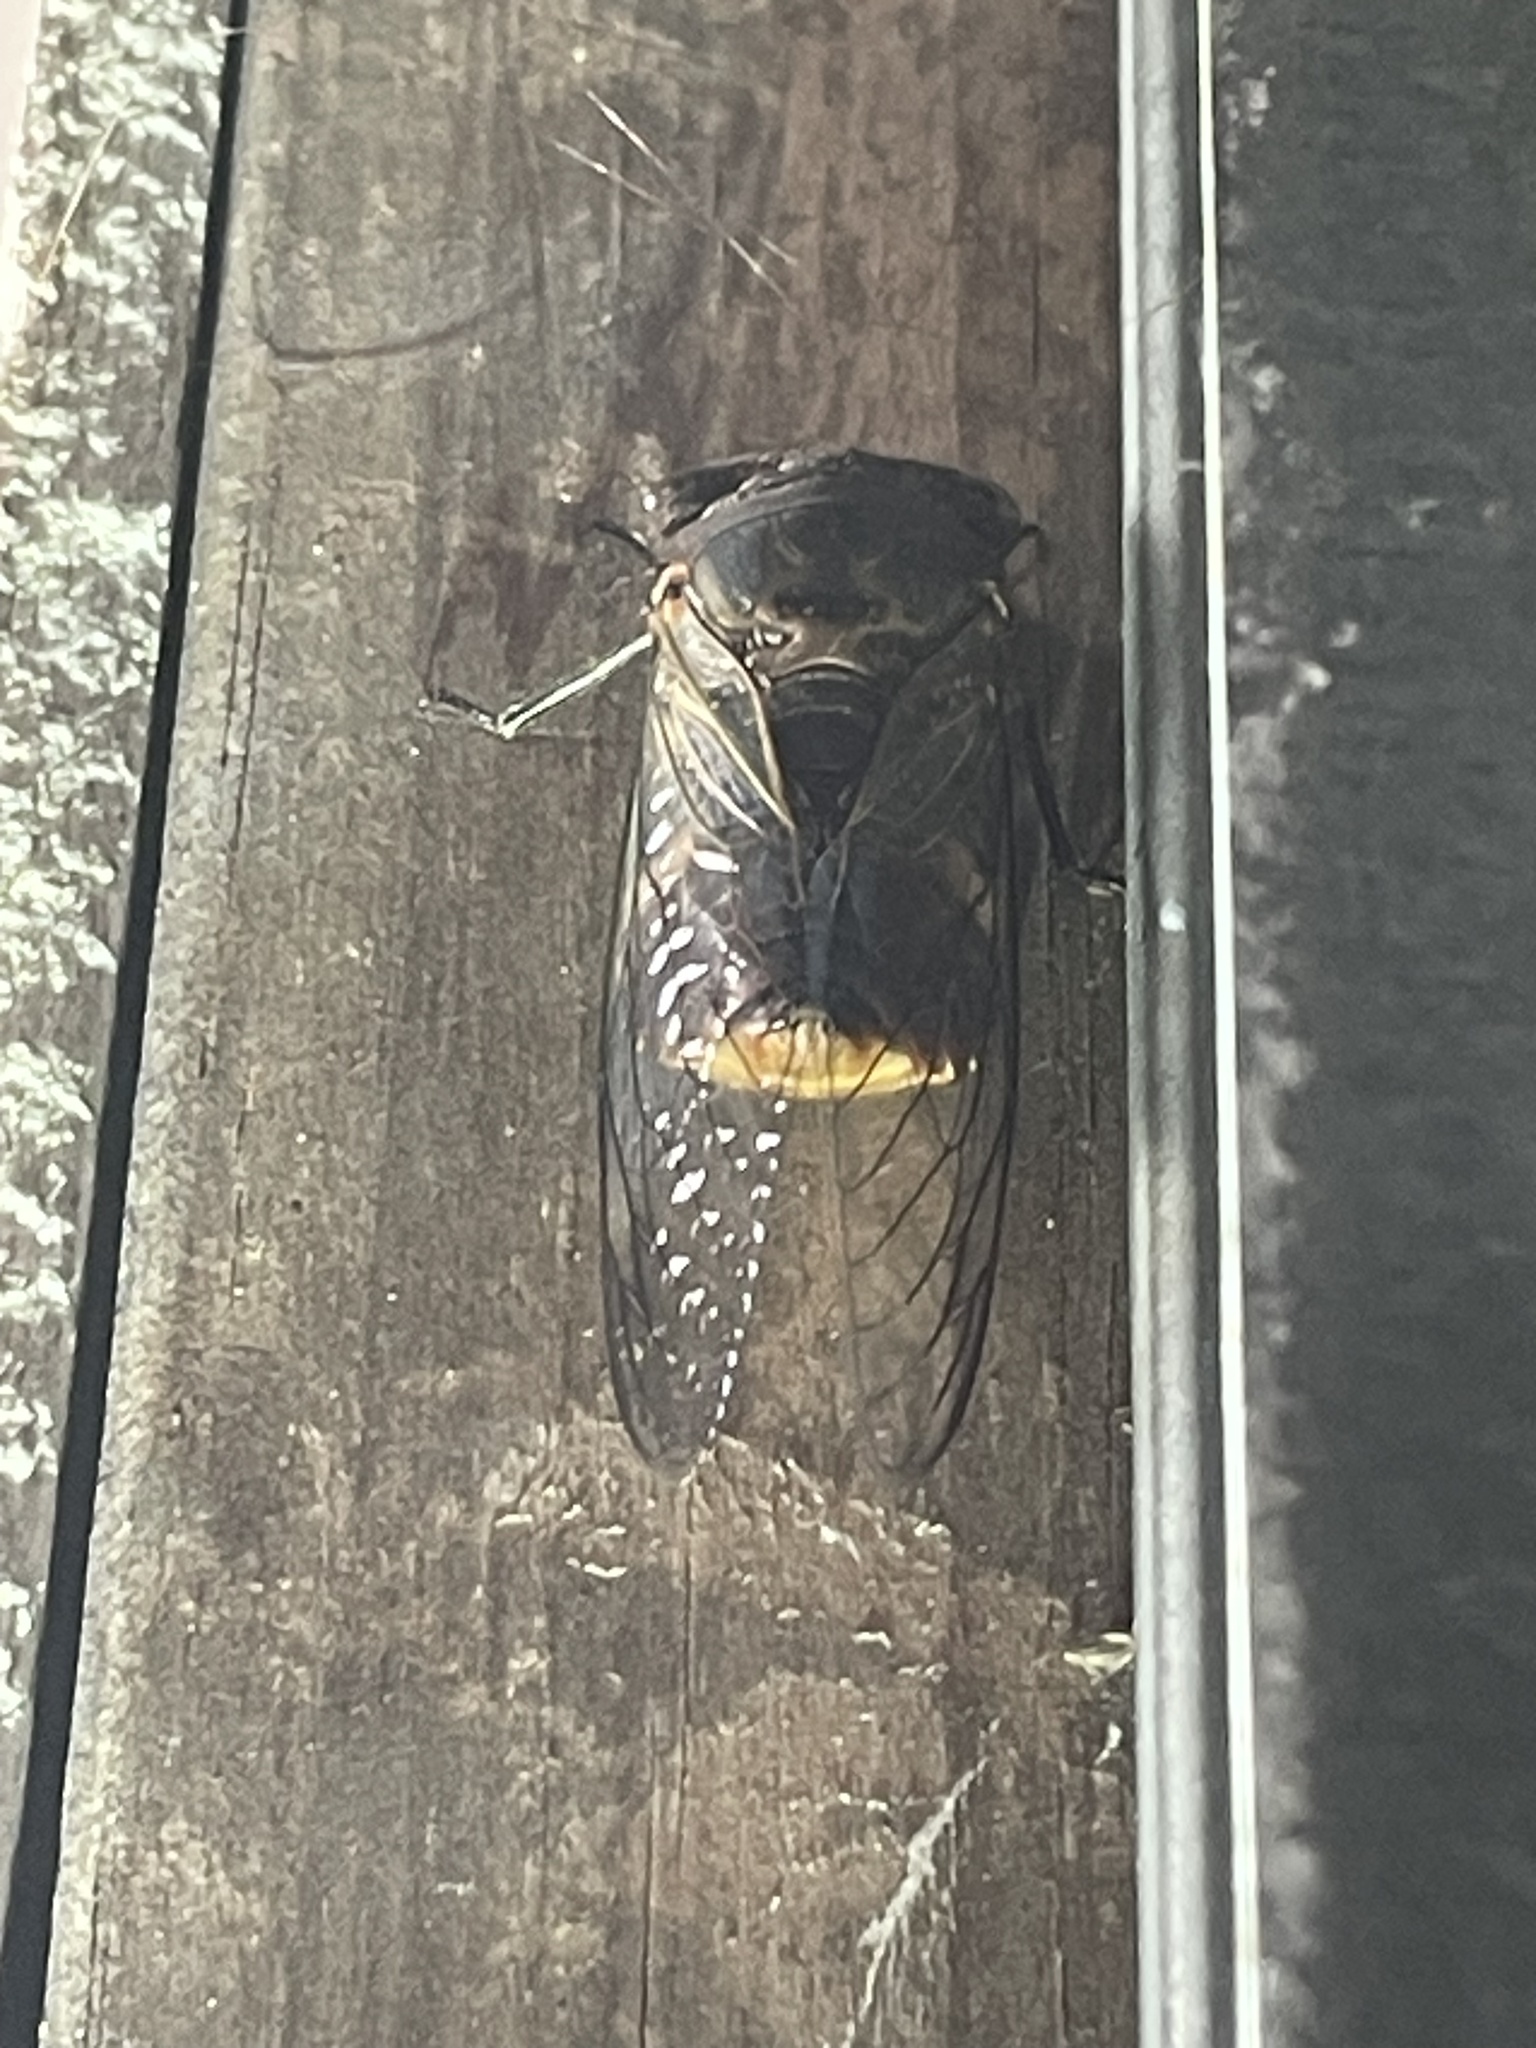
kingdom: Animalia
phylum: Arthropoda
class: Insecta
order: Hemiptera
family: Cicadidae
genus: Psaltoda
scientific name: Psaltoda plaga
